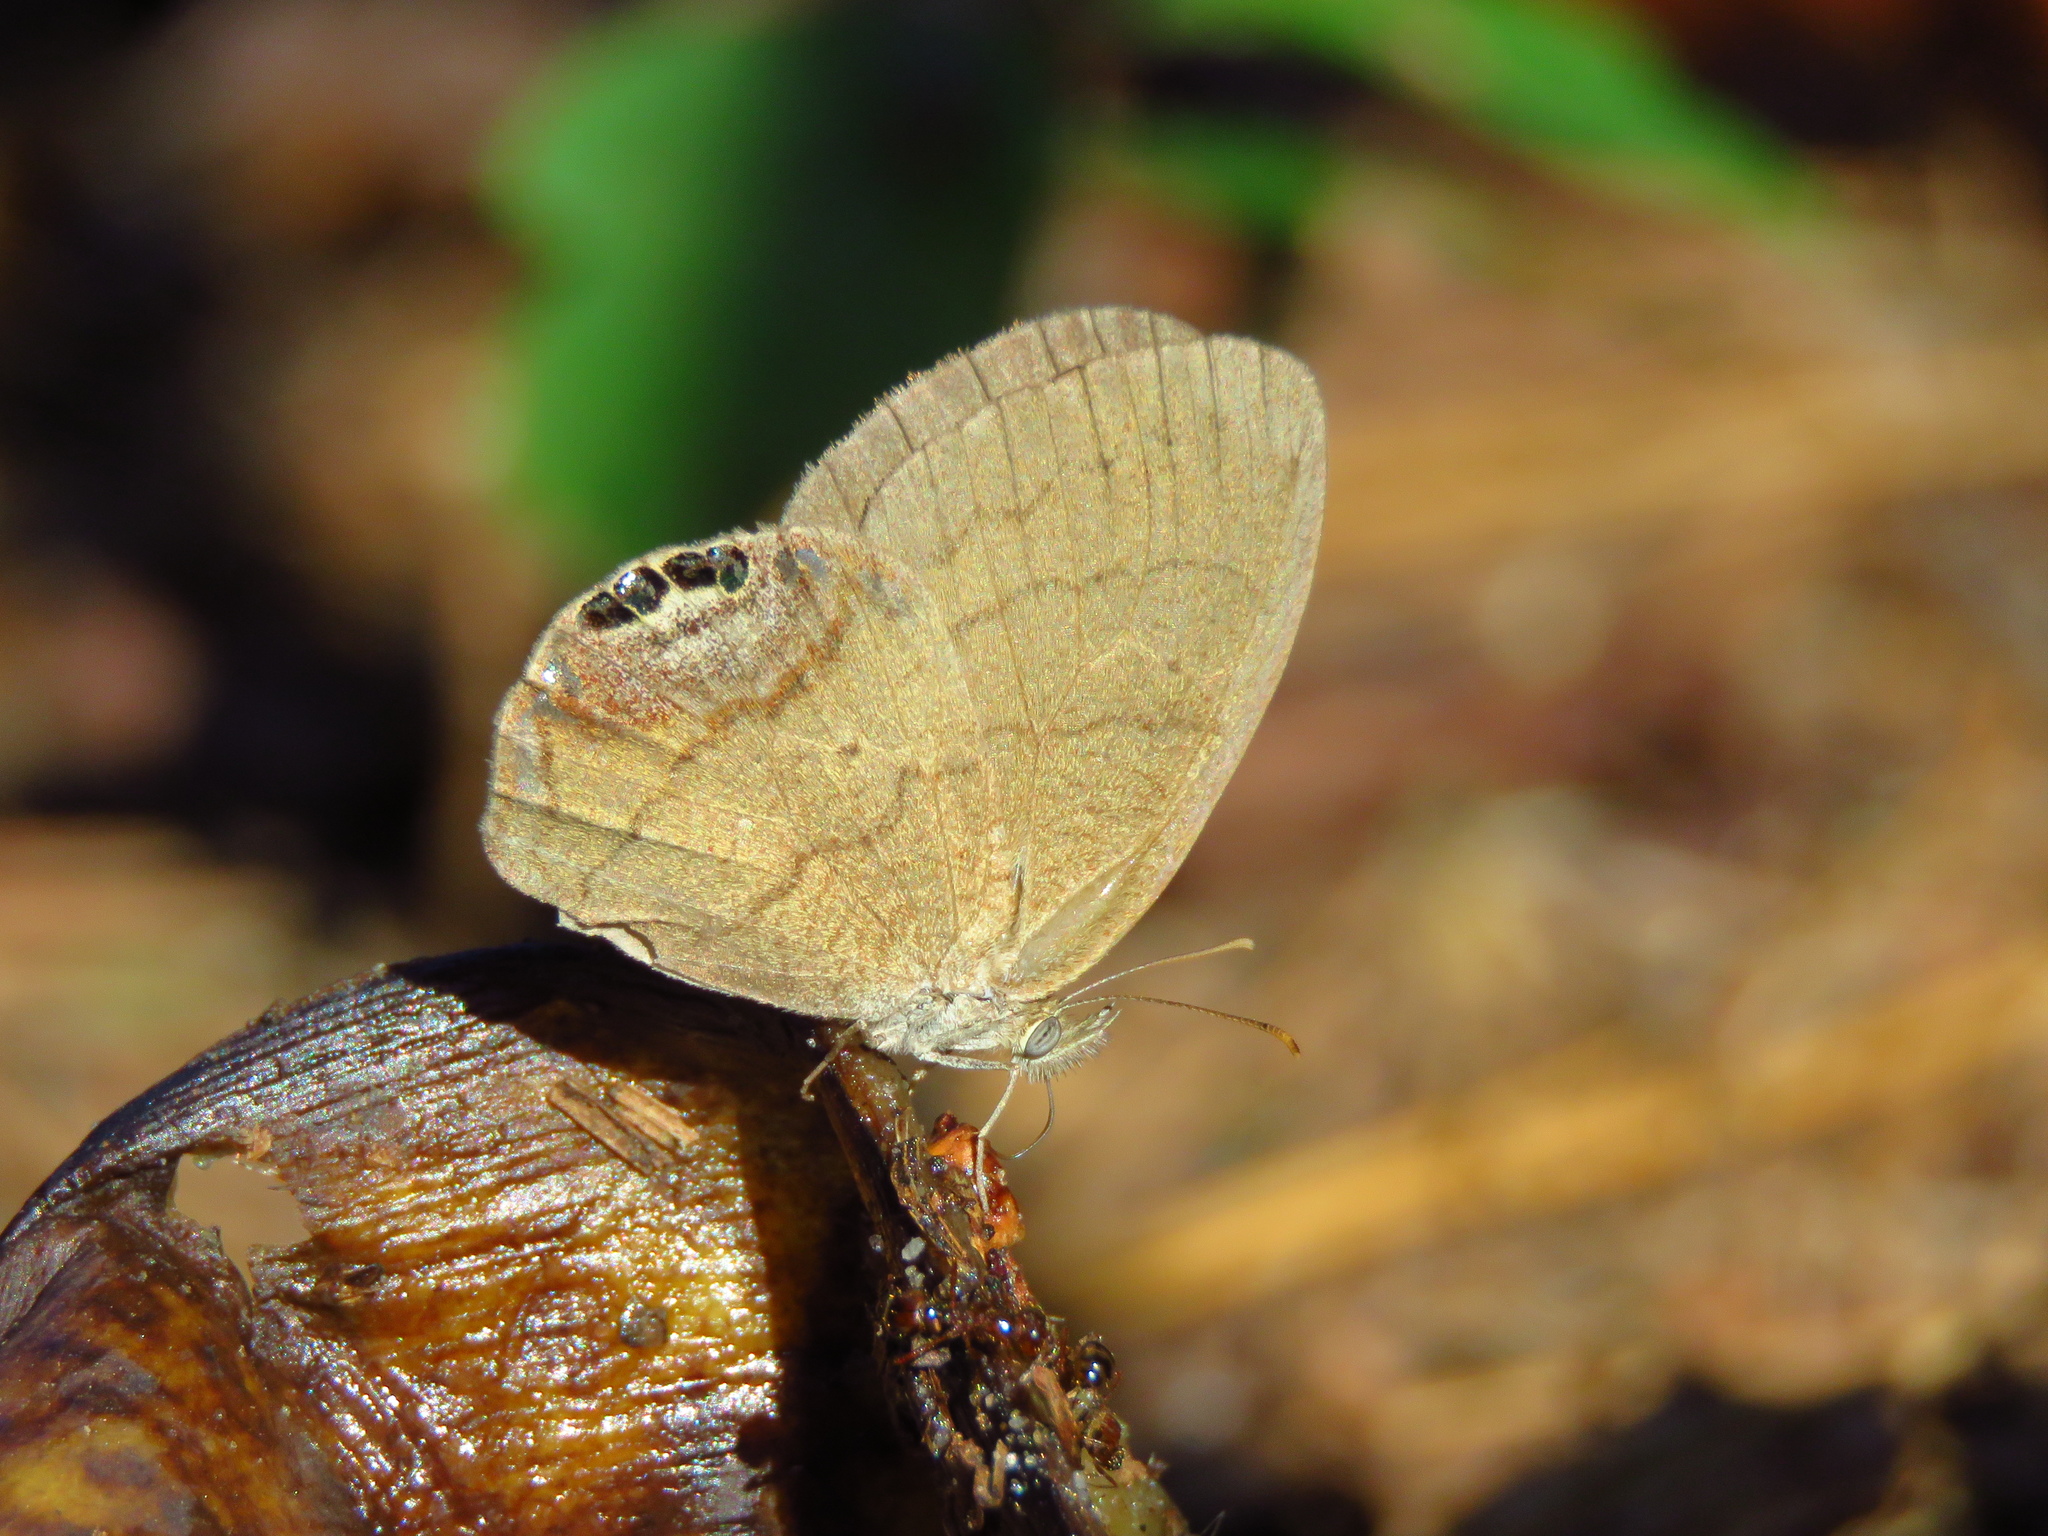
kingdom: Animalia
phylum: Arthropoda
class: Insecta
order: Lepidoptera
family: Nymphalidae
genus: Euptychia
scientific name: Euptychia cornelius
